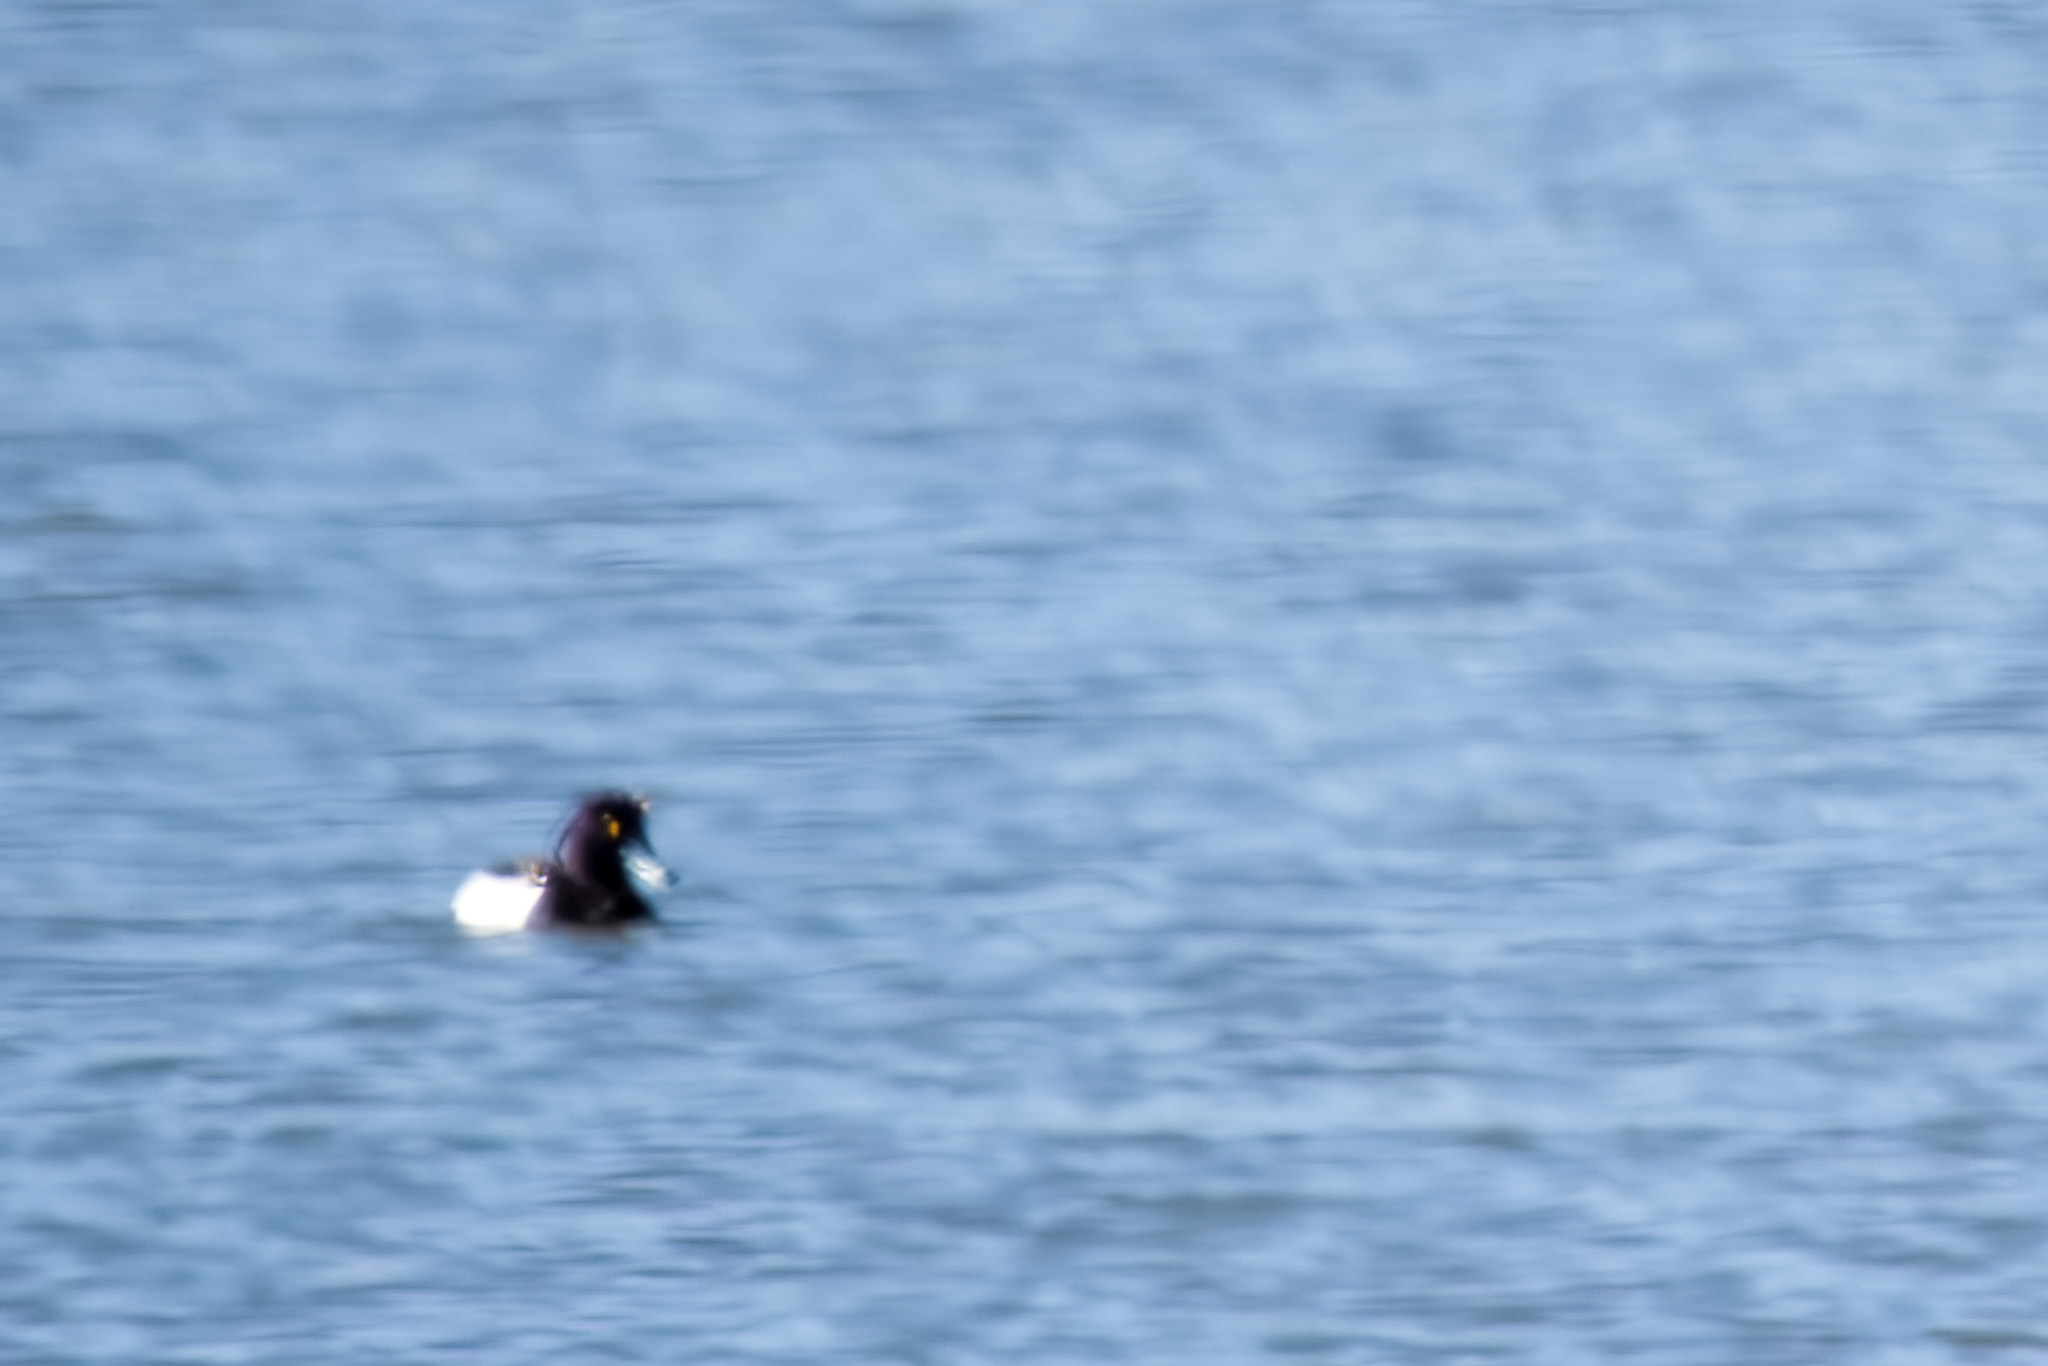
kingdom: Animalia
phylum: Chordata
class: Aves
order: Anseriformes
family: Anatidae
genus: Aythya
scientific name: Aythya fuligula
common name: Tufted duck
